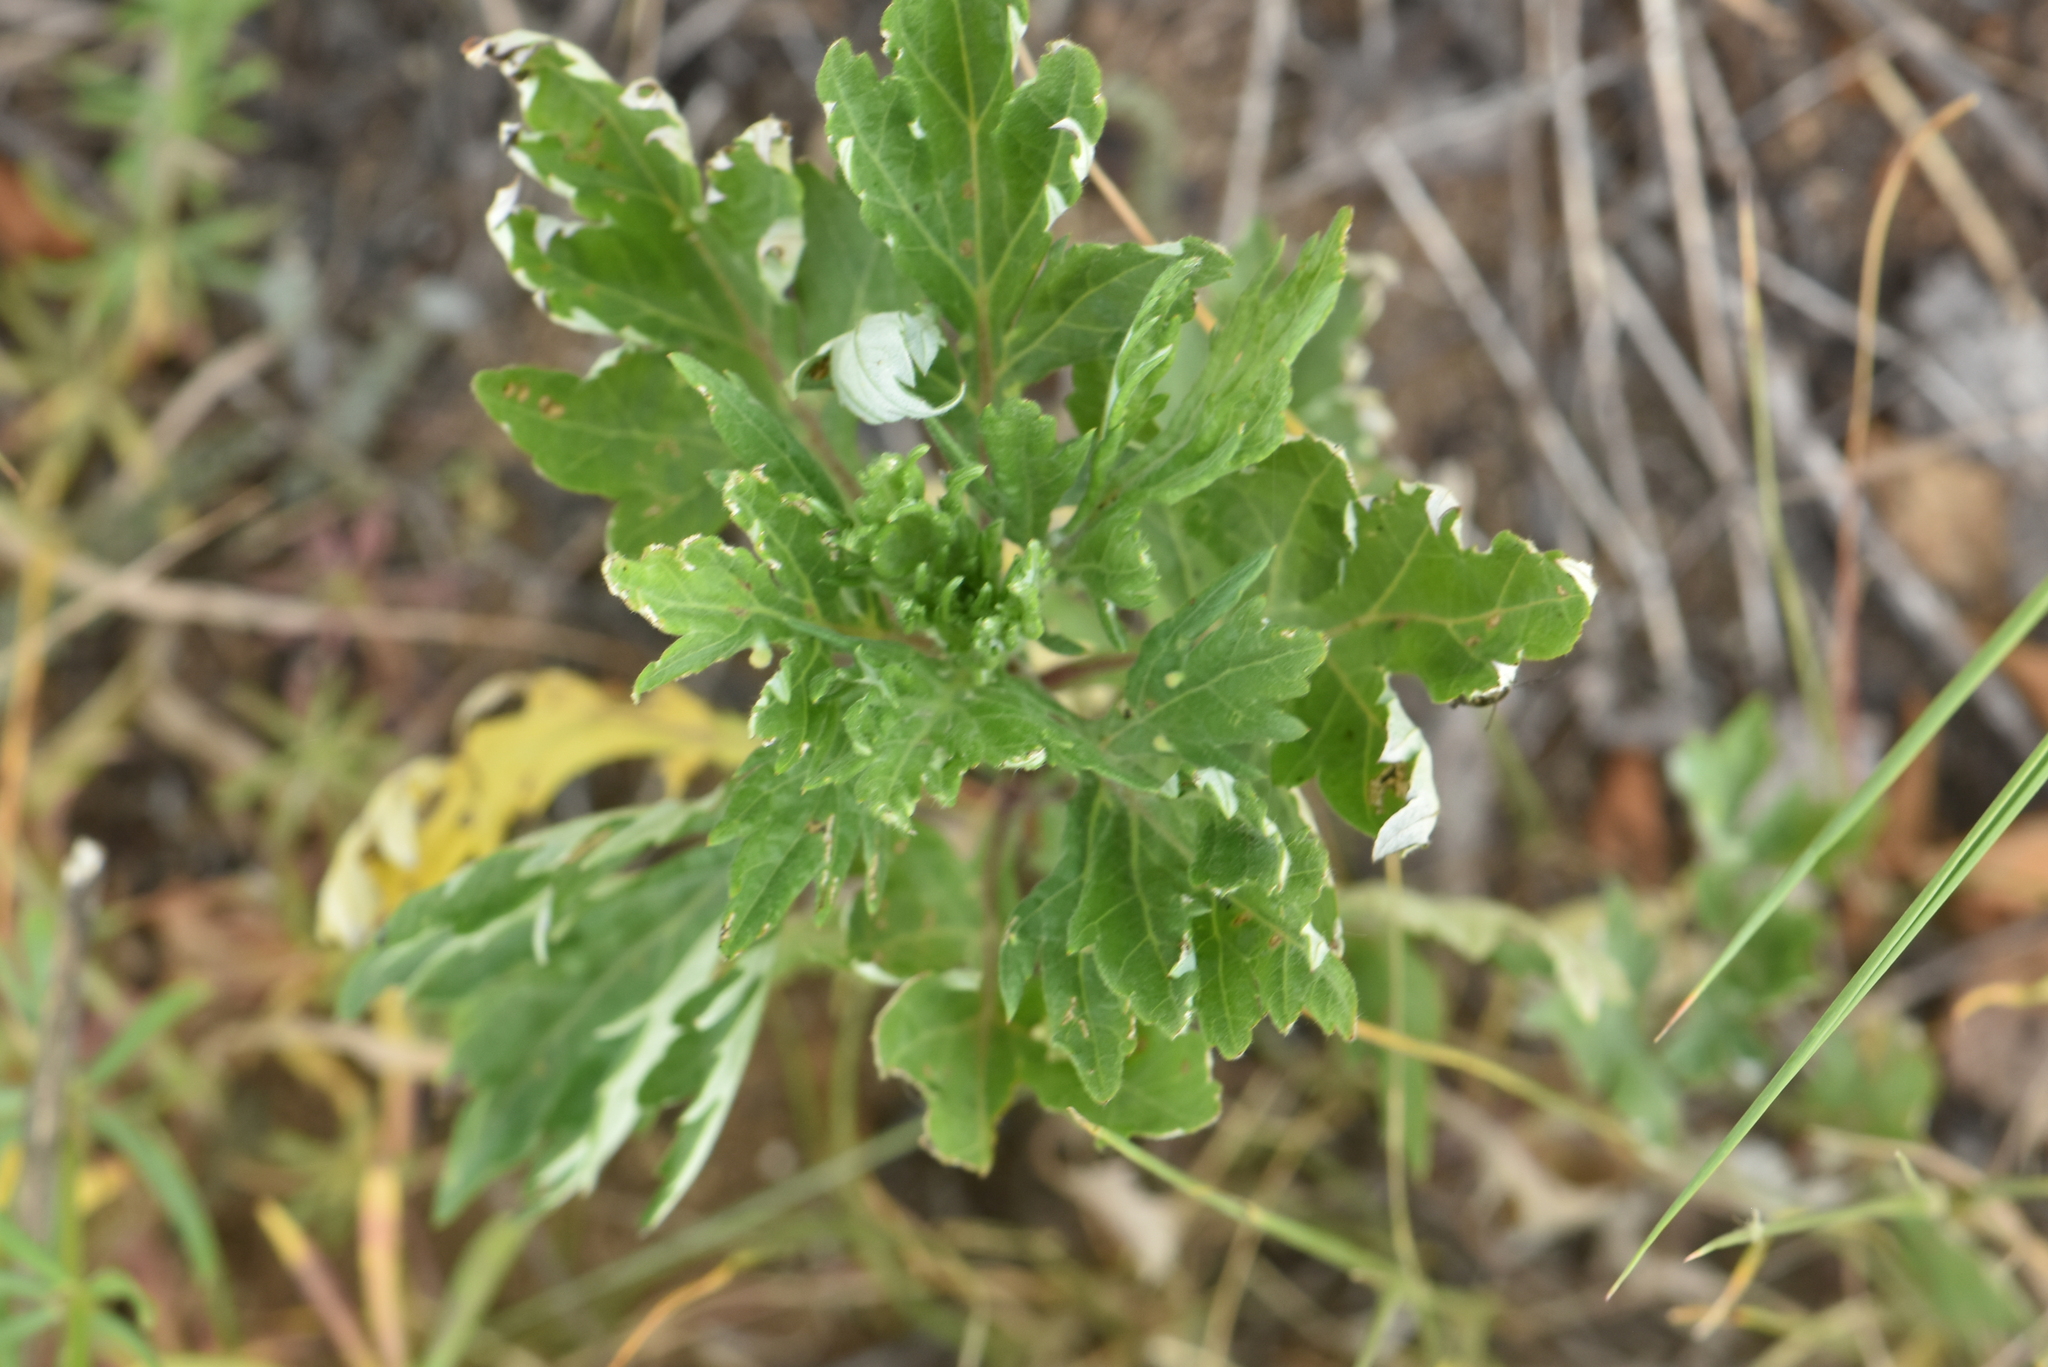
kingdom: Plantae
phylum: Tracheophyta
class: Magnoliopsida
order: Asterales
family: Asteraceae
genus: Artemisia
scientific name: Artemisia vulgaris
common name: Mugwort
